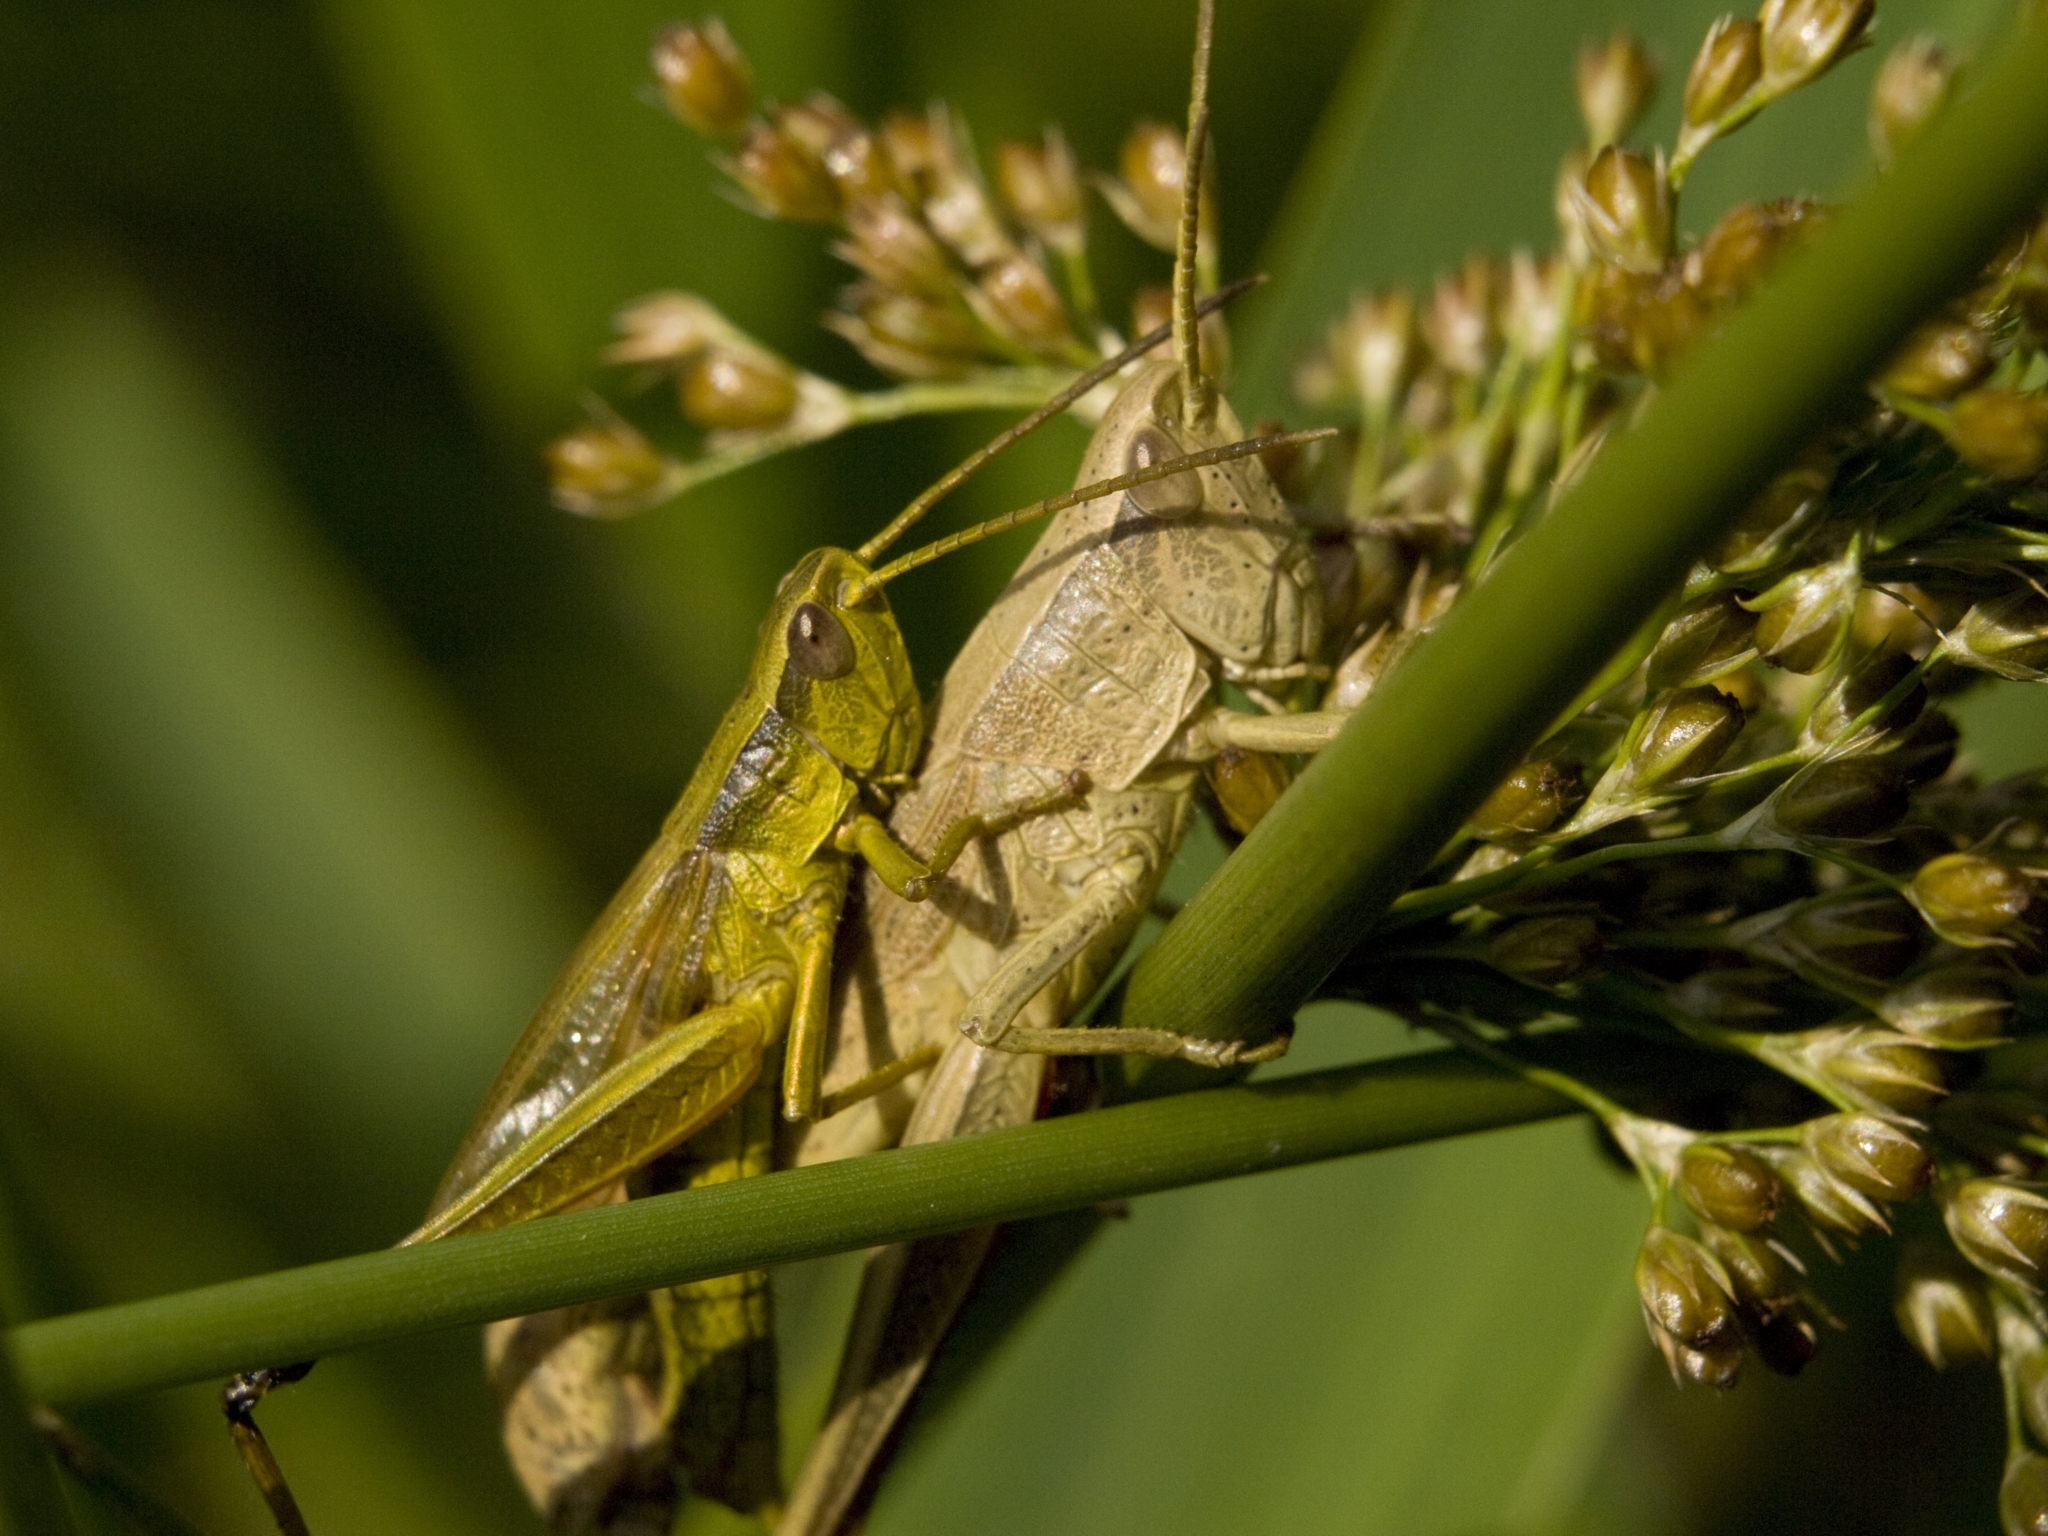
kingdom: Animalia
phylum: Arthropoda
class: Insecta
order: Orthoptera
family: Acrididae
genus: Chrysochraon
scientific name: Chrysochraon dispar
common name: Large gold grasshopper
